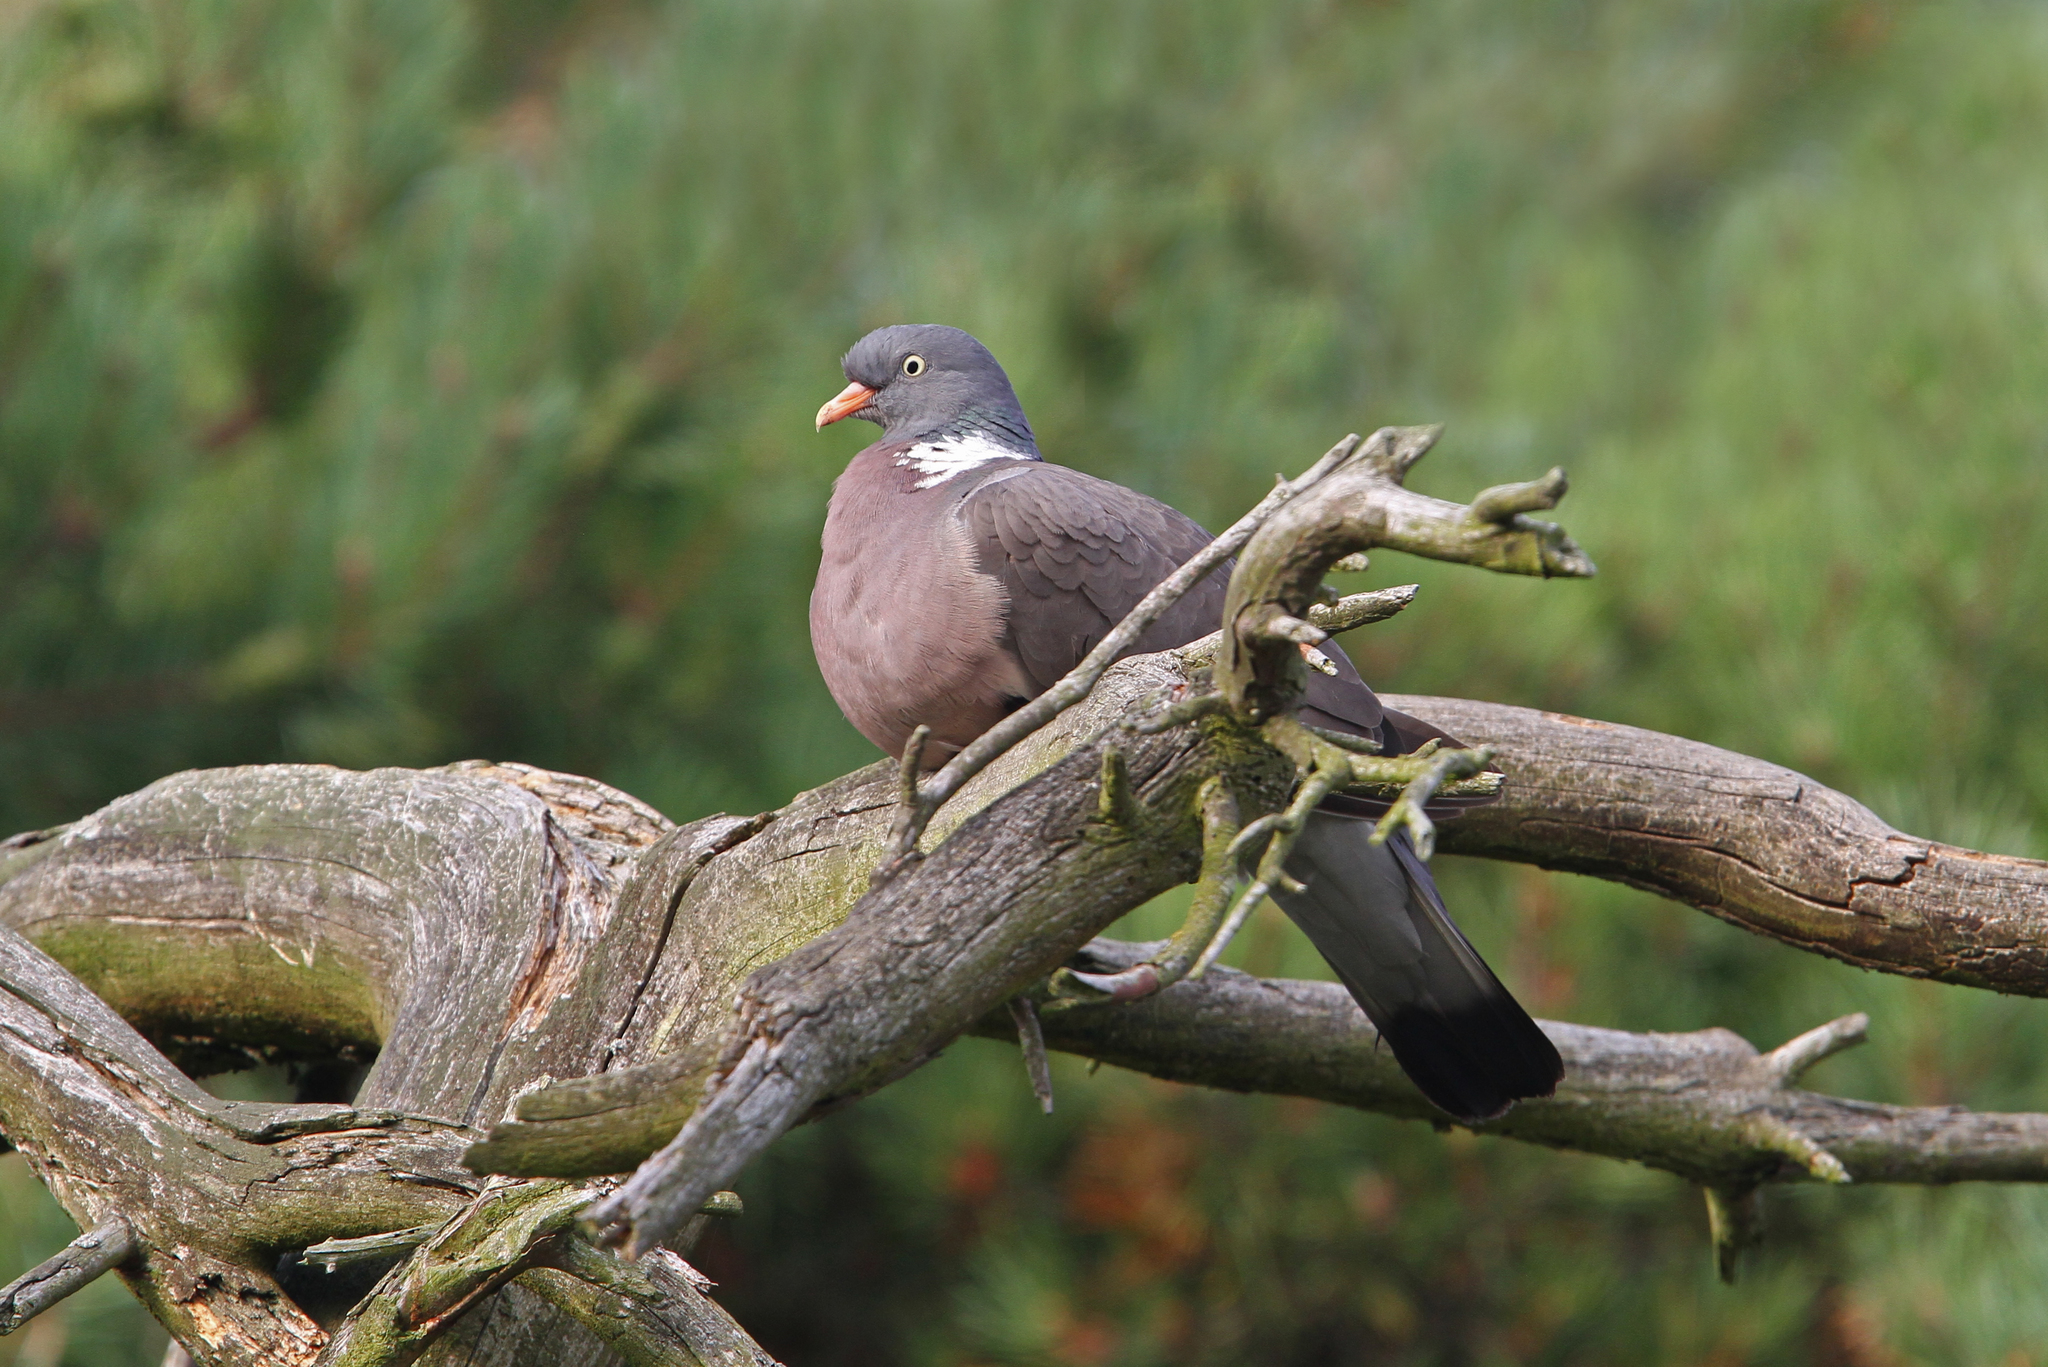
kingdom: Animalia
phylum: Chordata
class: Aves
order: Columbiformes
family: Columbidae
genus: Columba
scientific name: Columba palumbus
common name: Common wood pigeon
